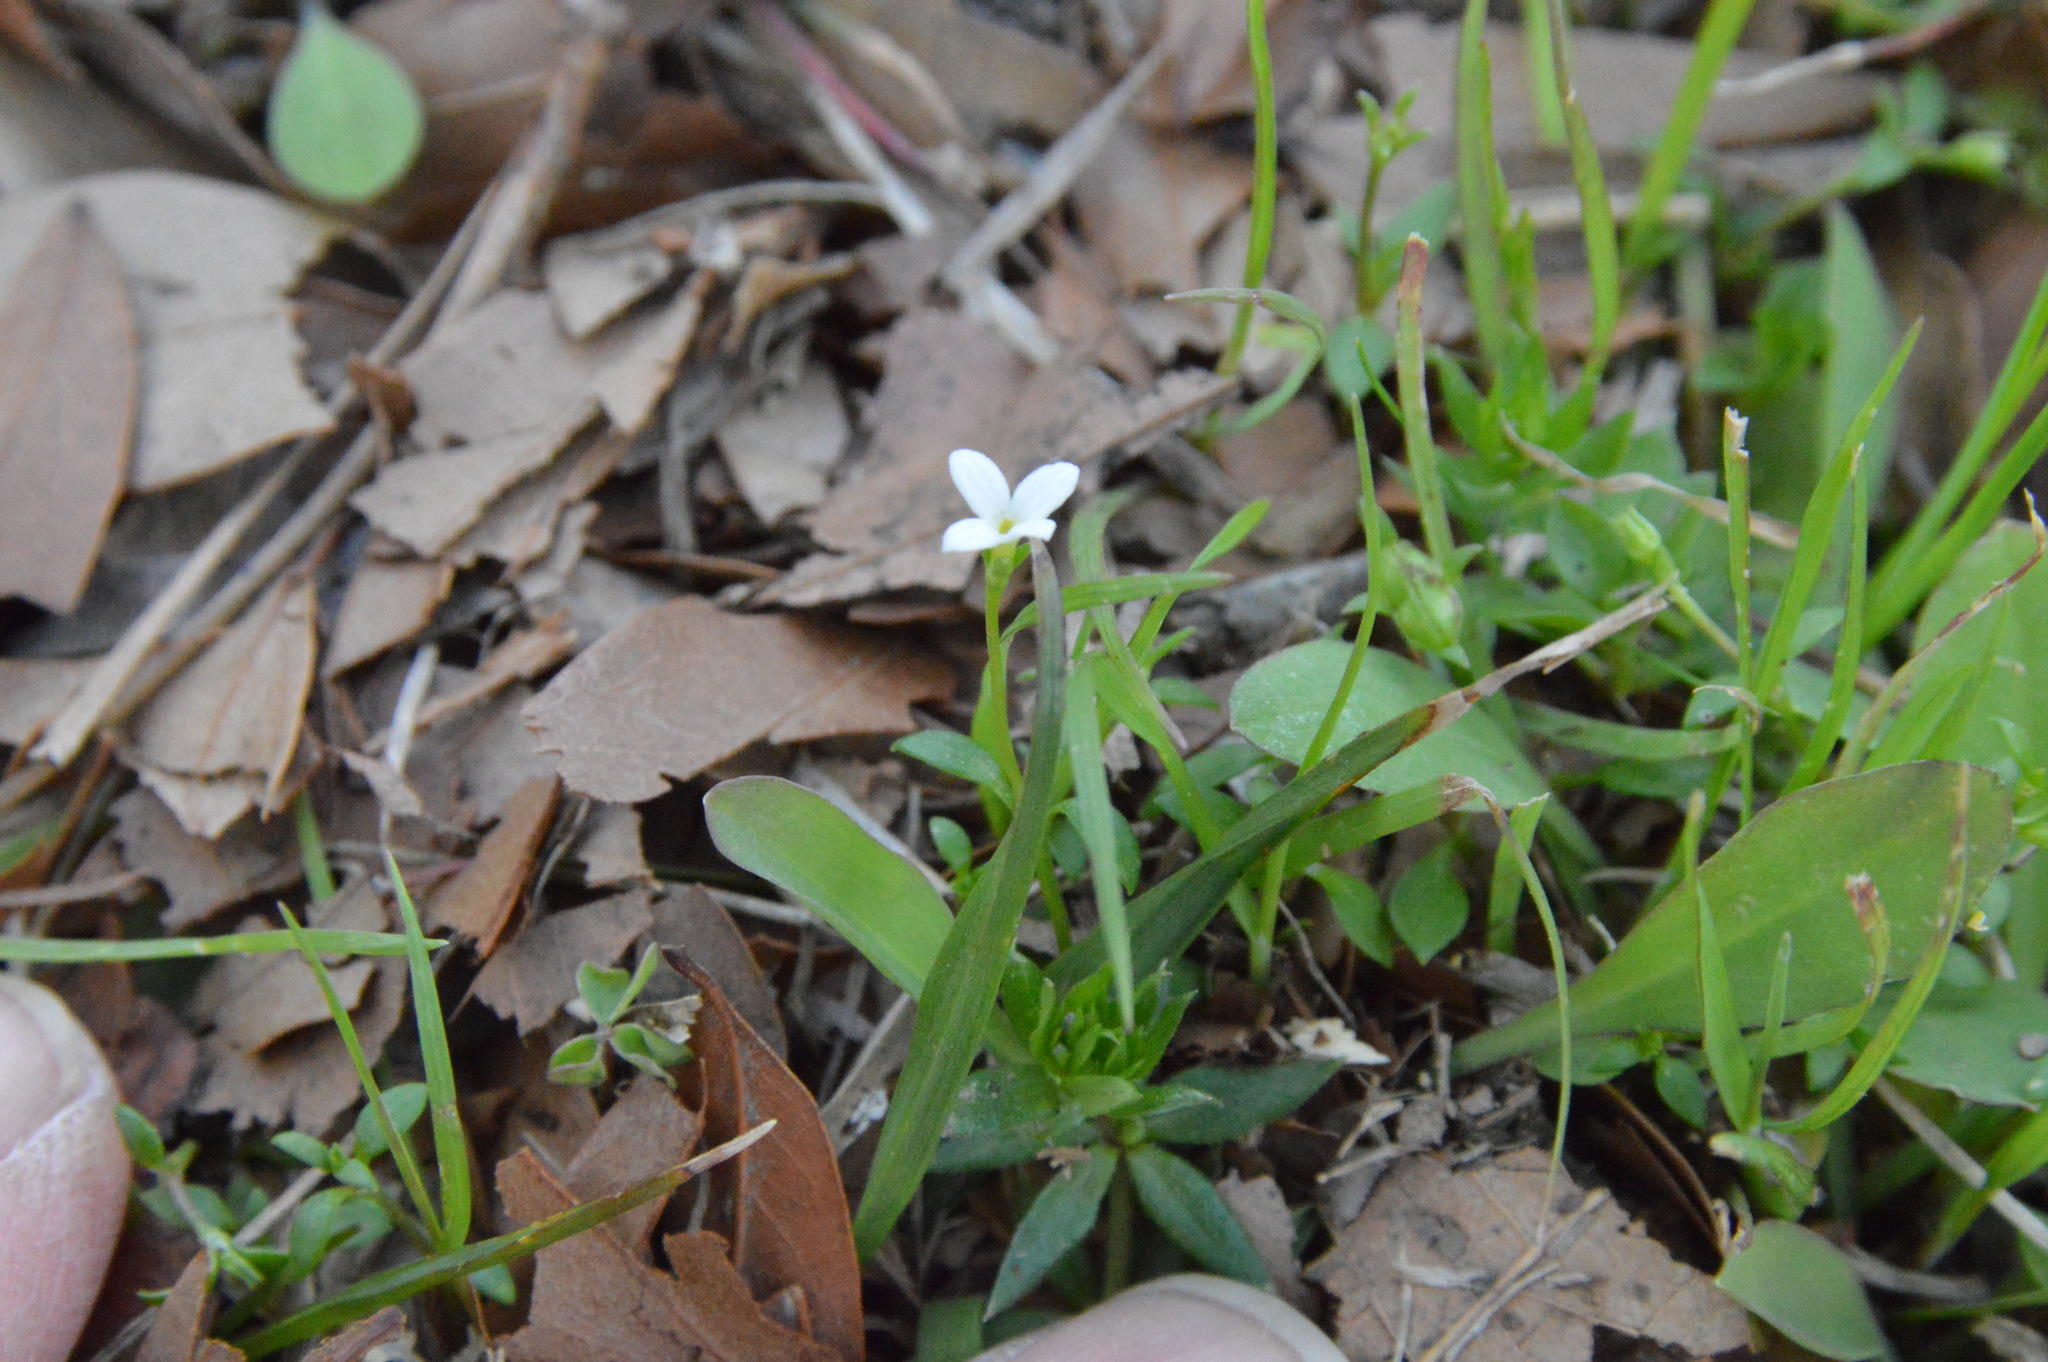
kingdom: Plantae
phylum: Tracheophyta
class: Magnoliopsida
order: Gentianales
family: Rubiaceae
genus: Houstonia
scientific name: Houstonia micrantha
